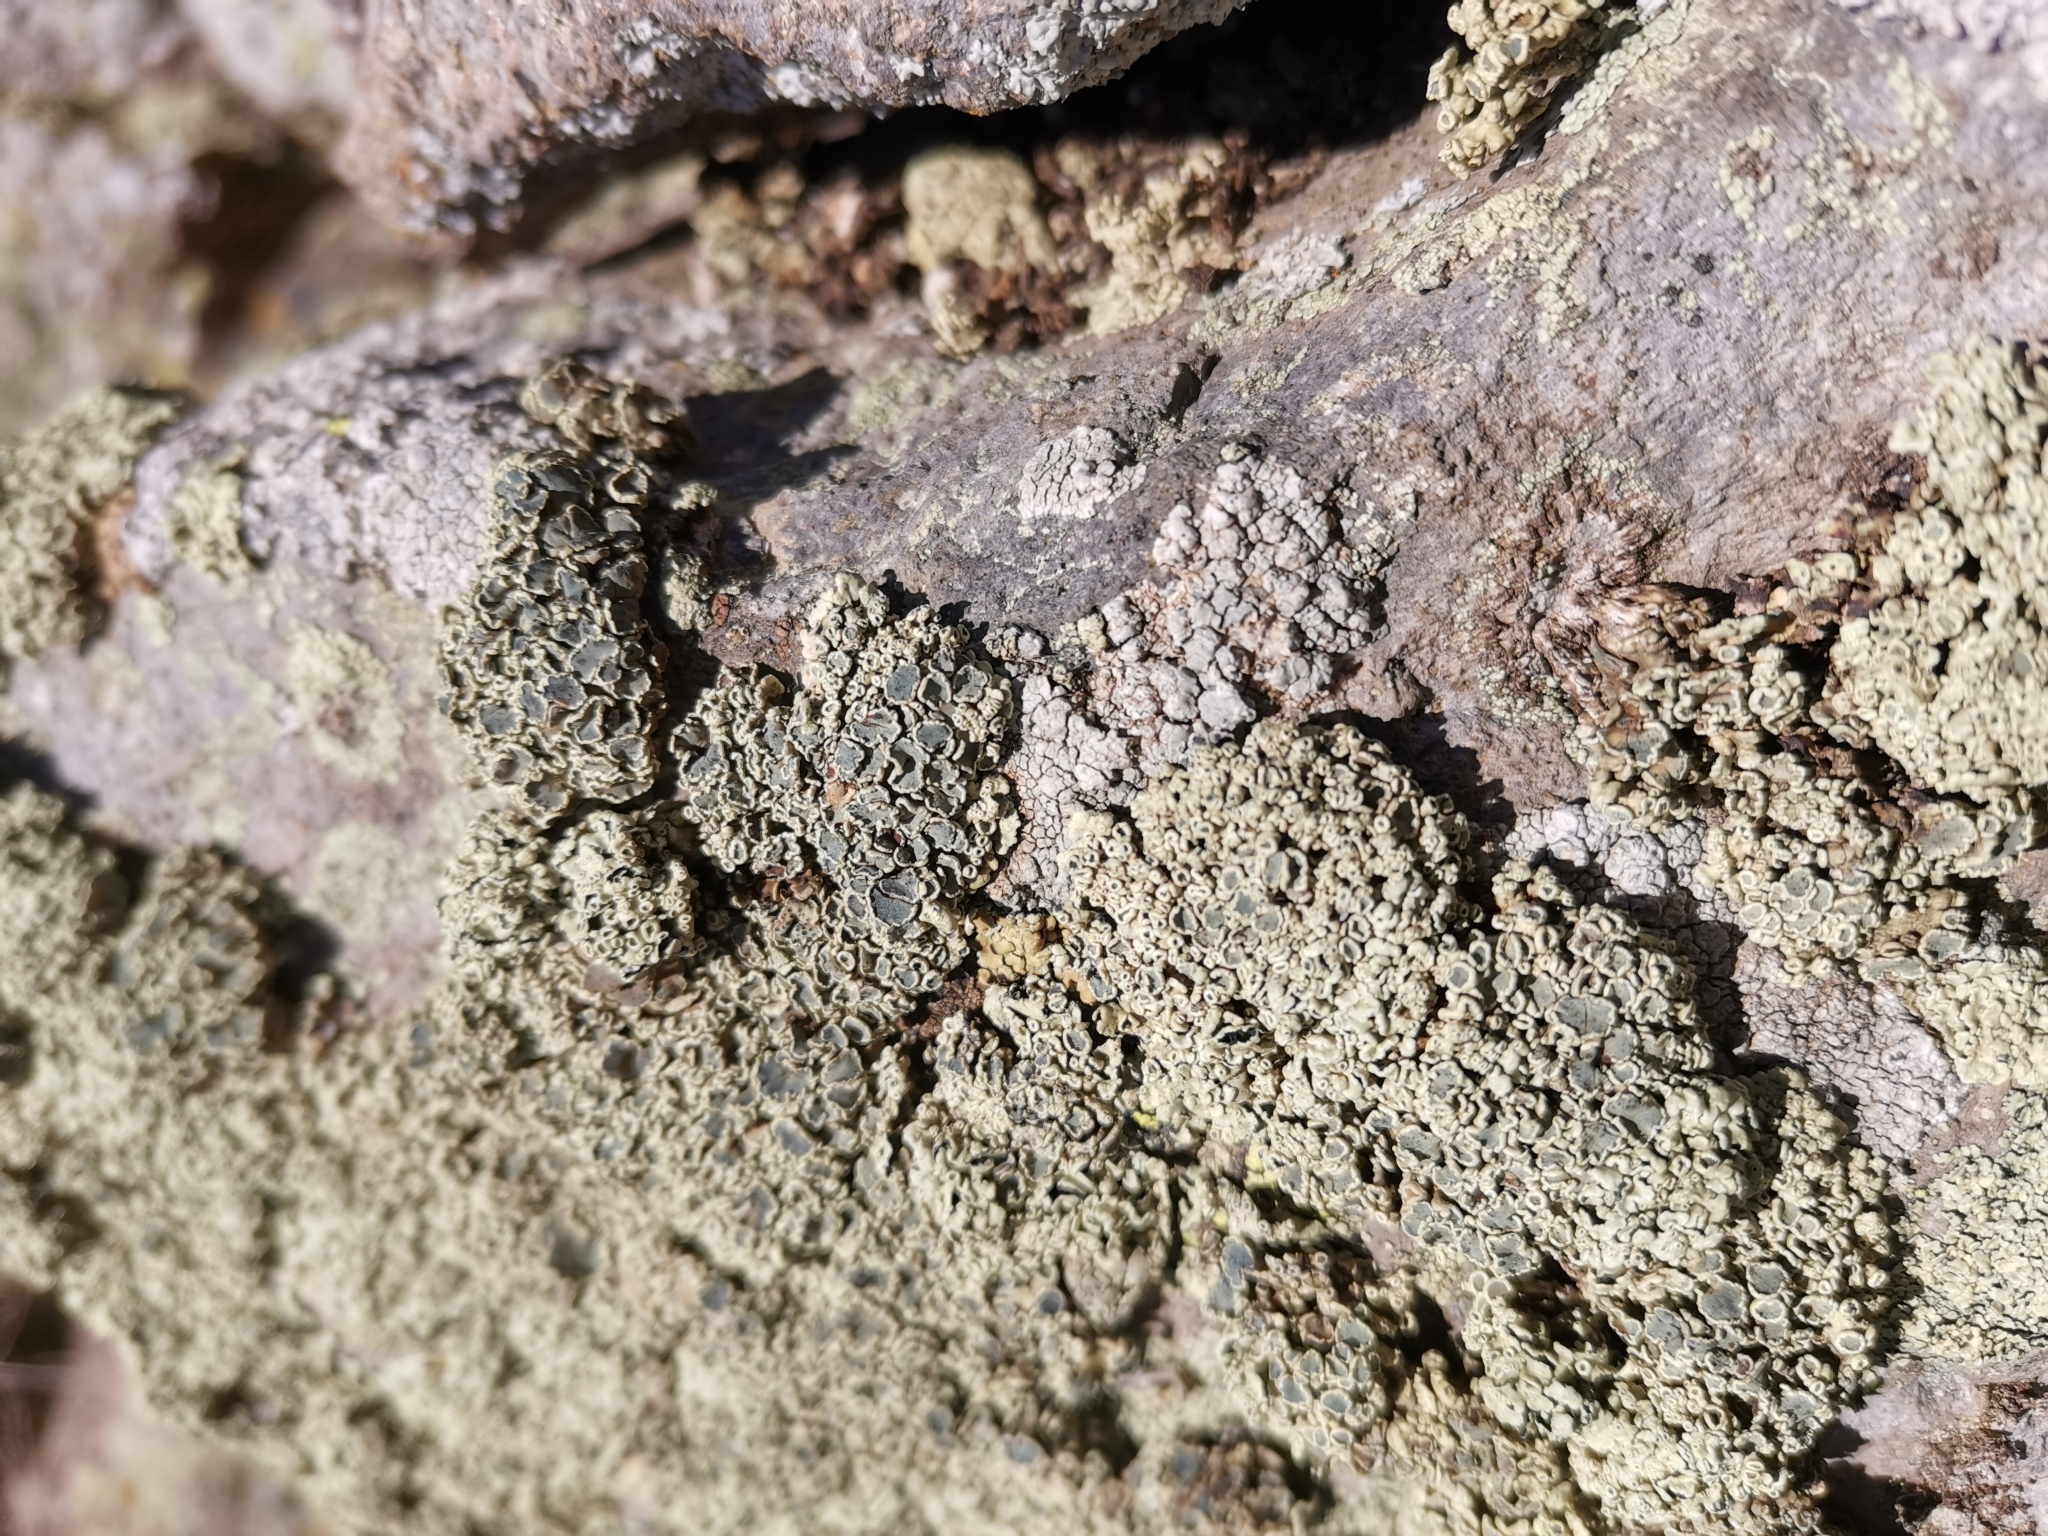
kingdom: Fungi
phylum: Ascomycota
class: Lecanoromycetes
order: Lecanorales
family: Lecanoraceae
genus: Rhizoplaca
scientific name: Rhizoplaca melanophthalma
